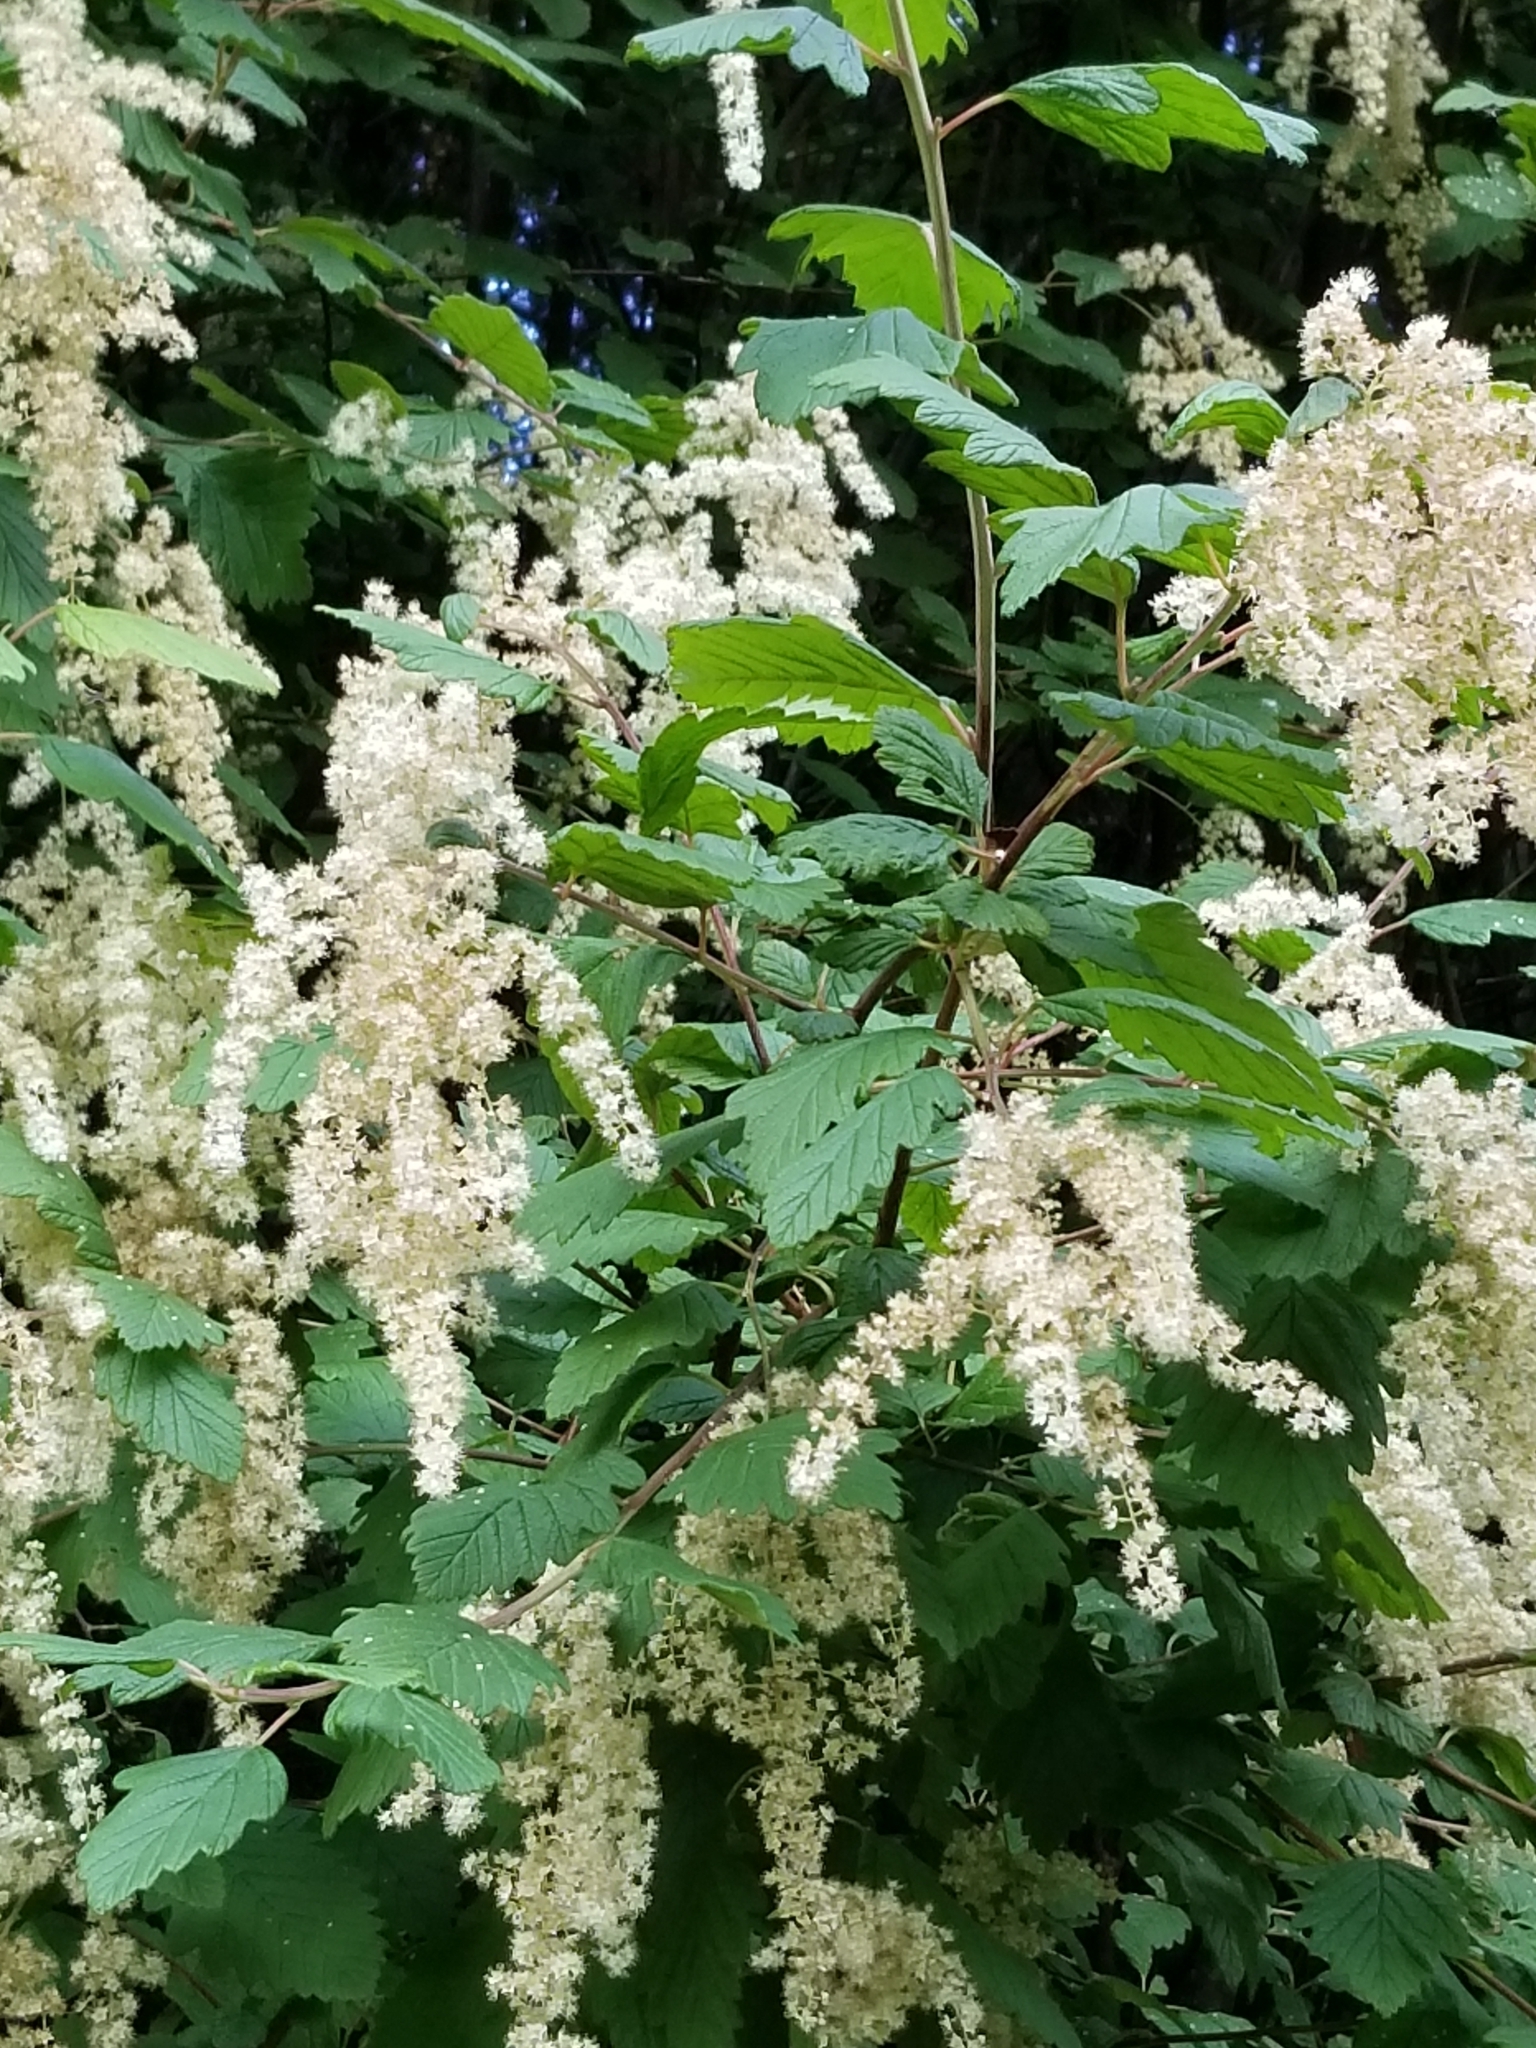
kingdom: Plantae
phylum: Tracheophyta
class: Magnoliopsida
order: Rosales
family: Rosaceae
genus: Holodiscus
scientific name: Holodiscus discolor
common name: Oceanspray
